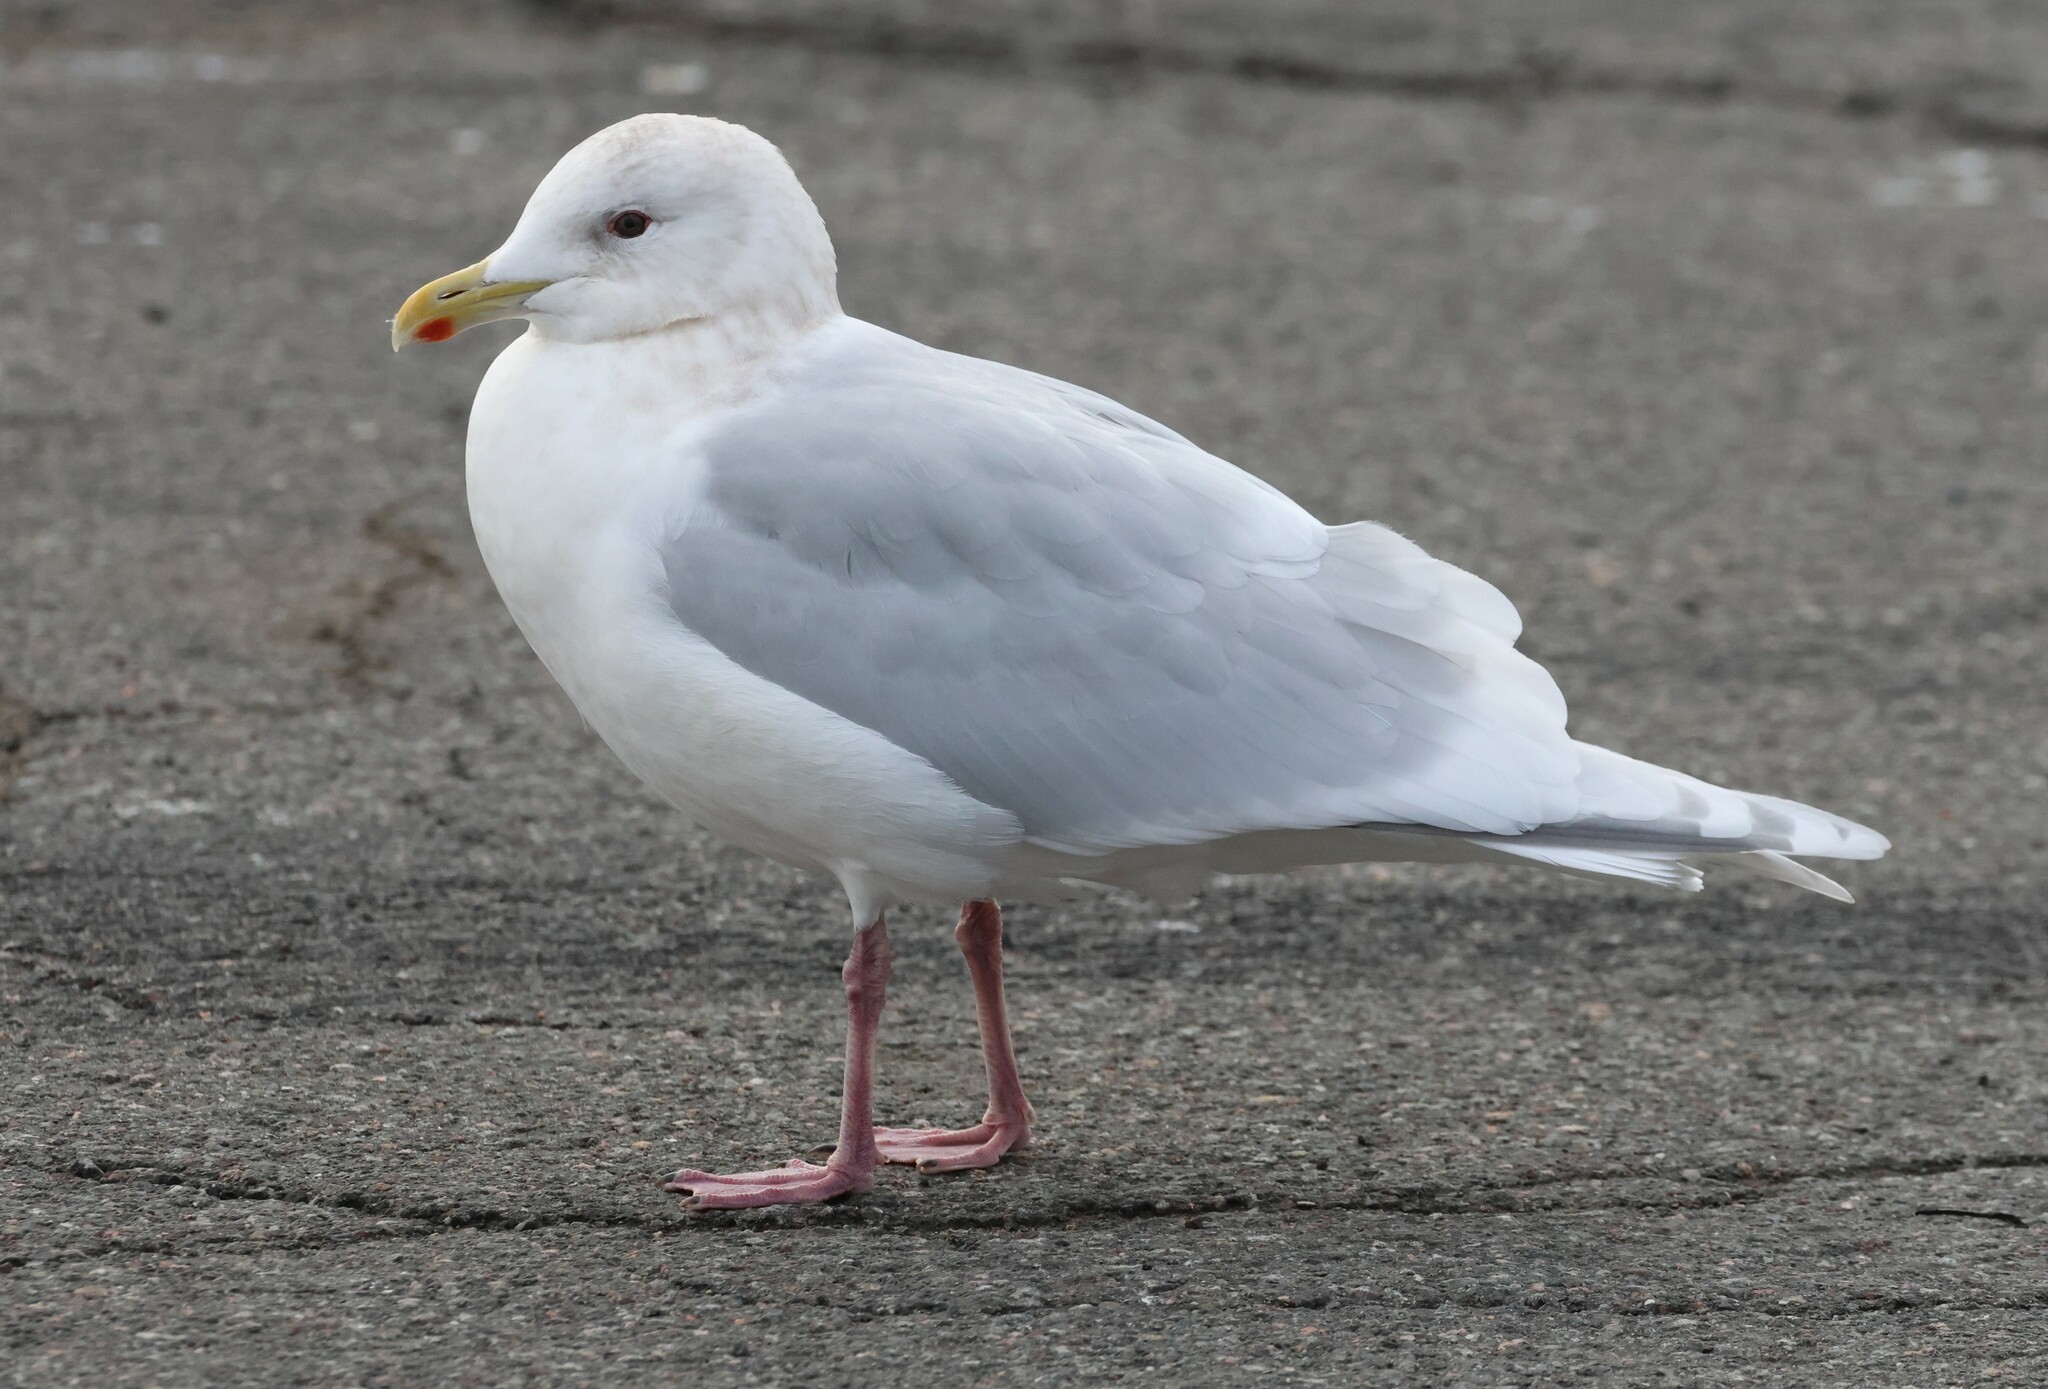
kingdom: Animalia
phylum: Chordata
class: Aves
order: Charadriiformes
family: Laridae
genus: Larus
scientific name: Larus glaucoides
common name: Iceland gull
